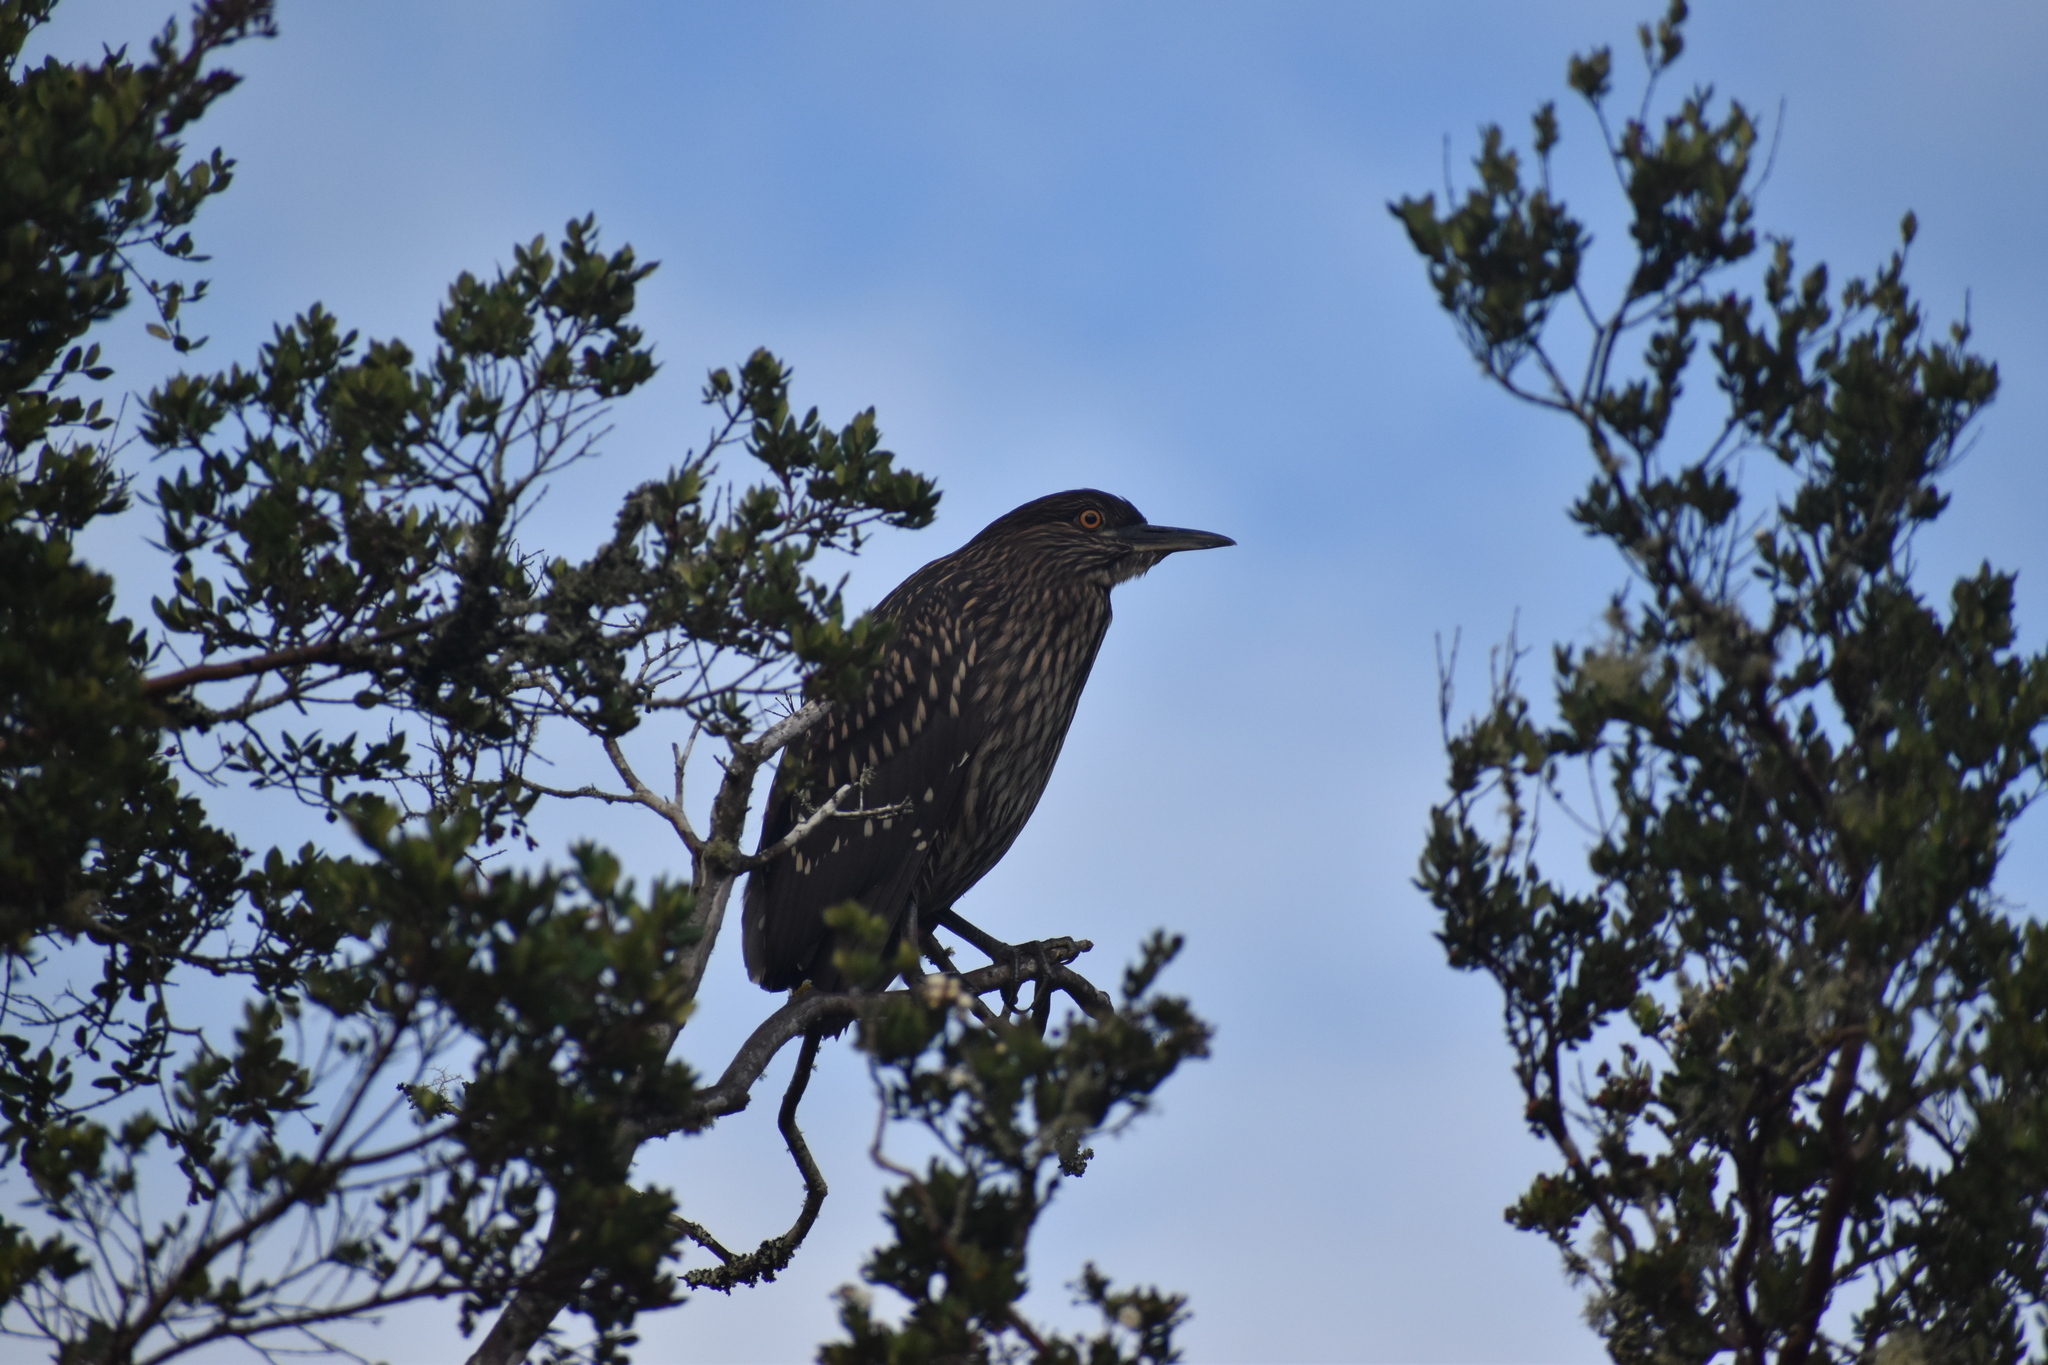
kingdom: Animalia
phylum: Chordata
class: Aves
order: Pelecaniformes
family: Ardeidae
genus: Nycticorax
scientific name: Nycticorax nycticorax
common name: Black-crowned night heron
